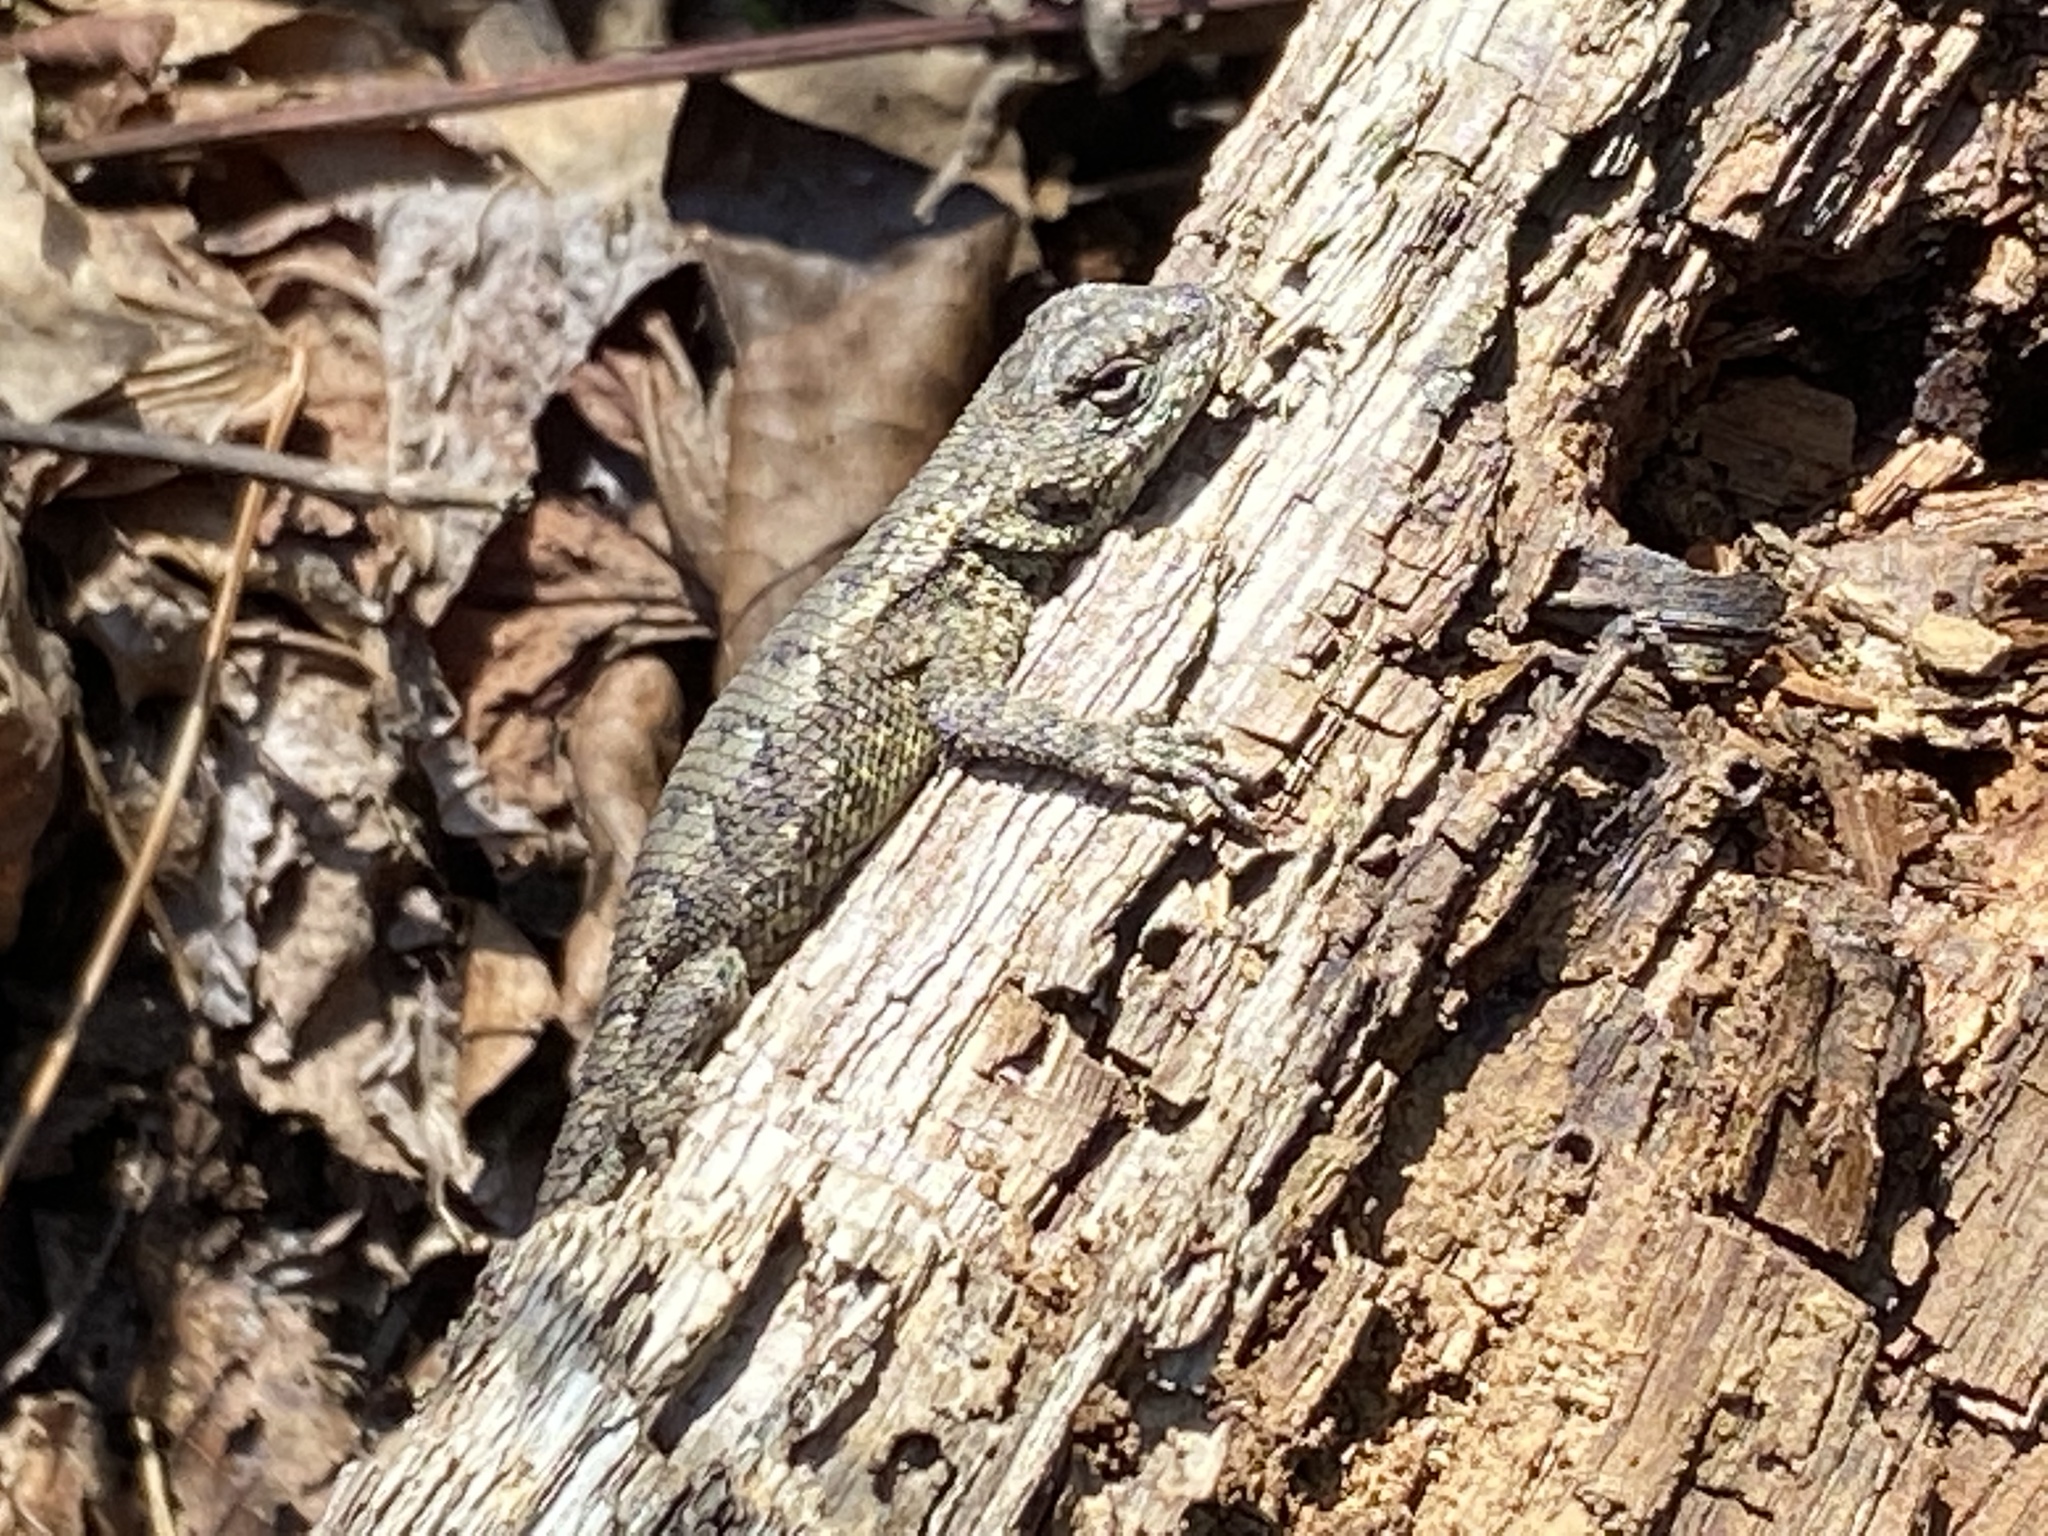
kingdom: Animalia
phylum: Chordata
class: Squamata
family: Phrynosomatidae
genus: Sceloporus
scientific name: Sceloporus undulatus
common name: Eastern fence lizard
